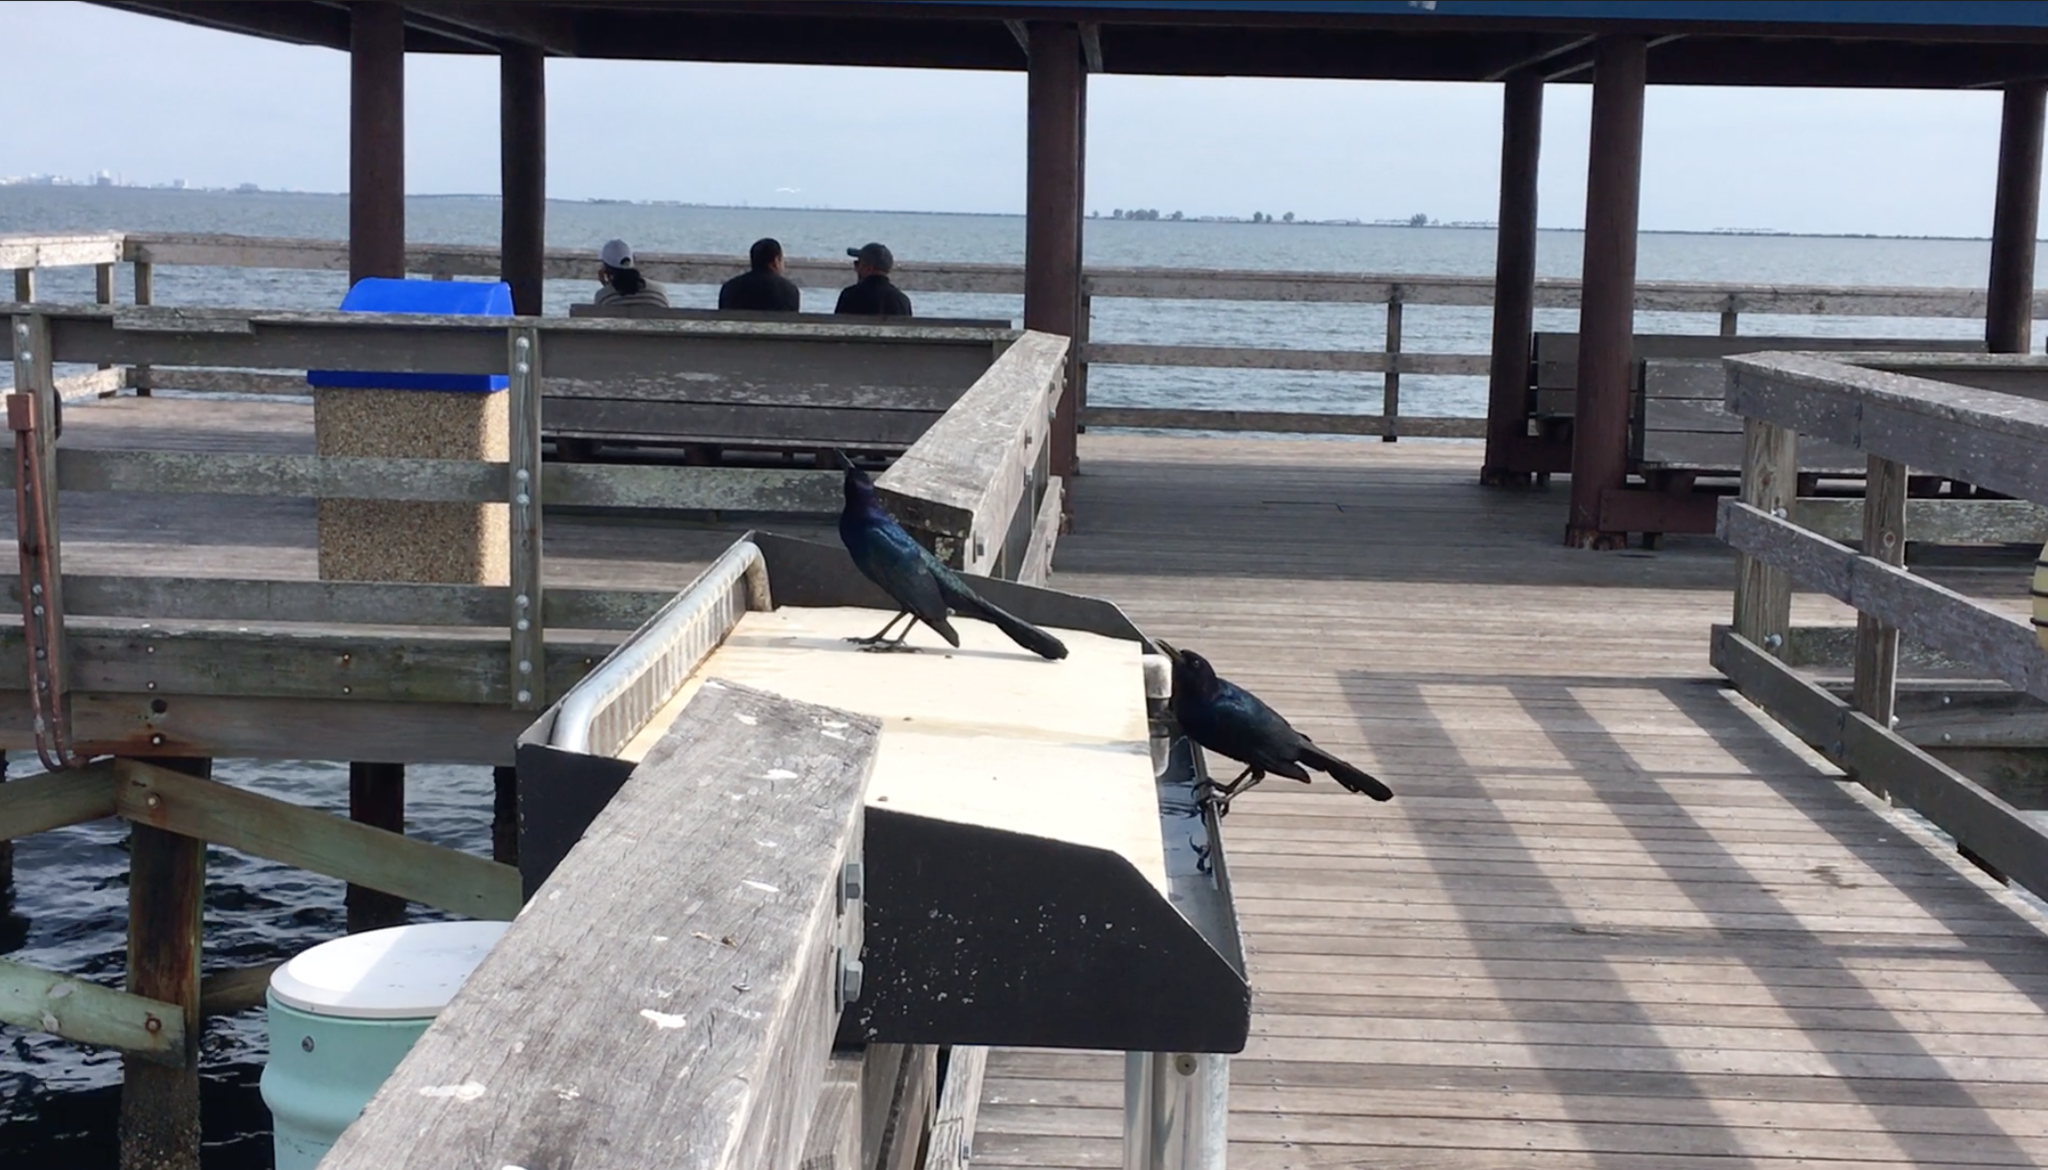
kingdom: Animalia
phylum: Chordata
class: Aves
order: Passeriformes
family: Icteridae
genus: Quiscalus
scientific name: Quiscalus major
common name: Boat-tailed grackle
